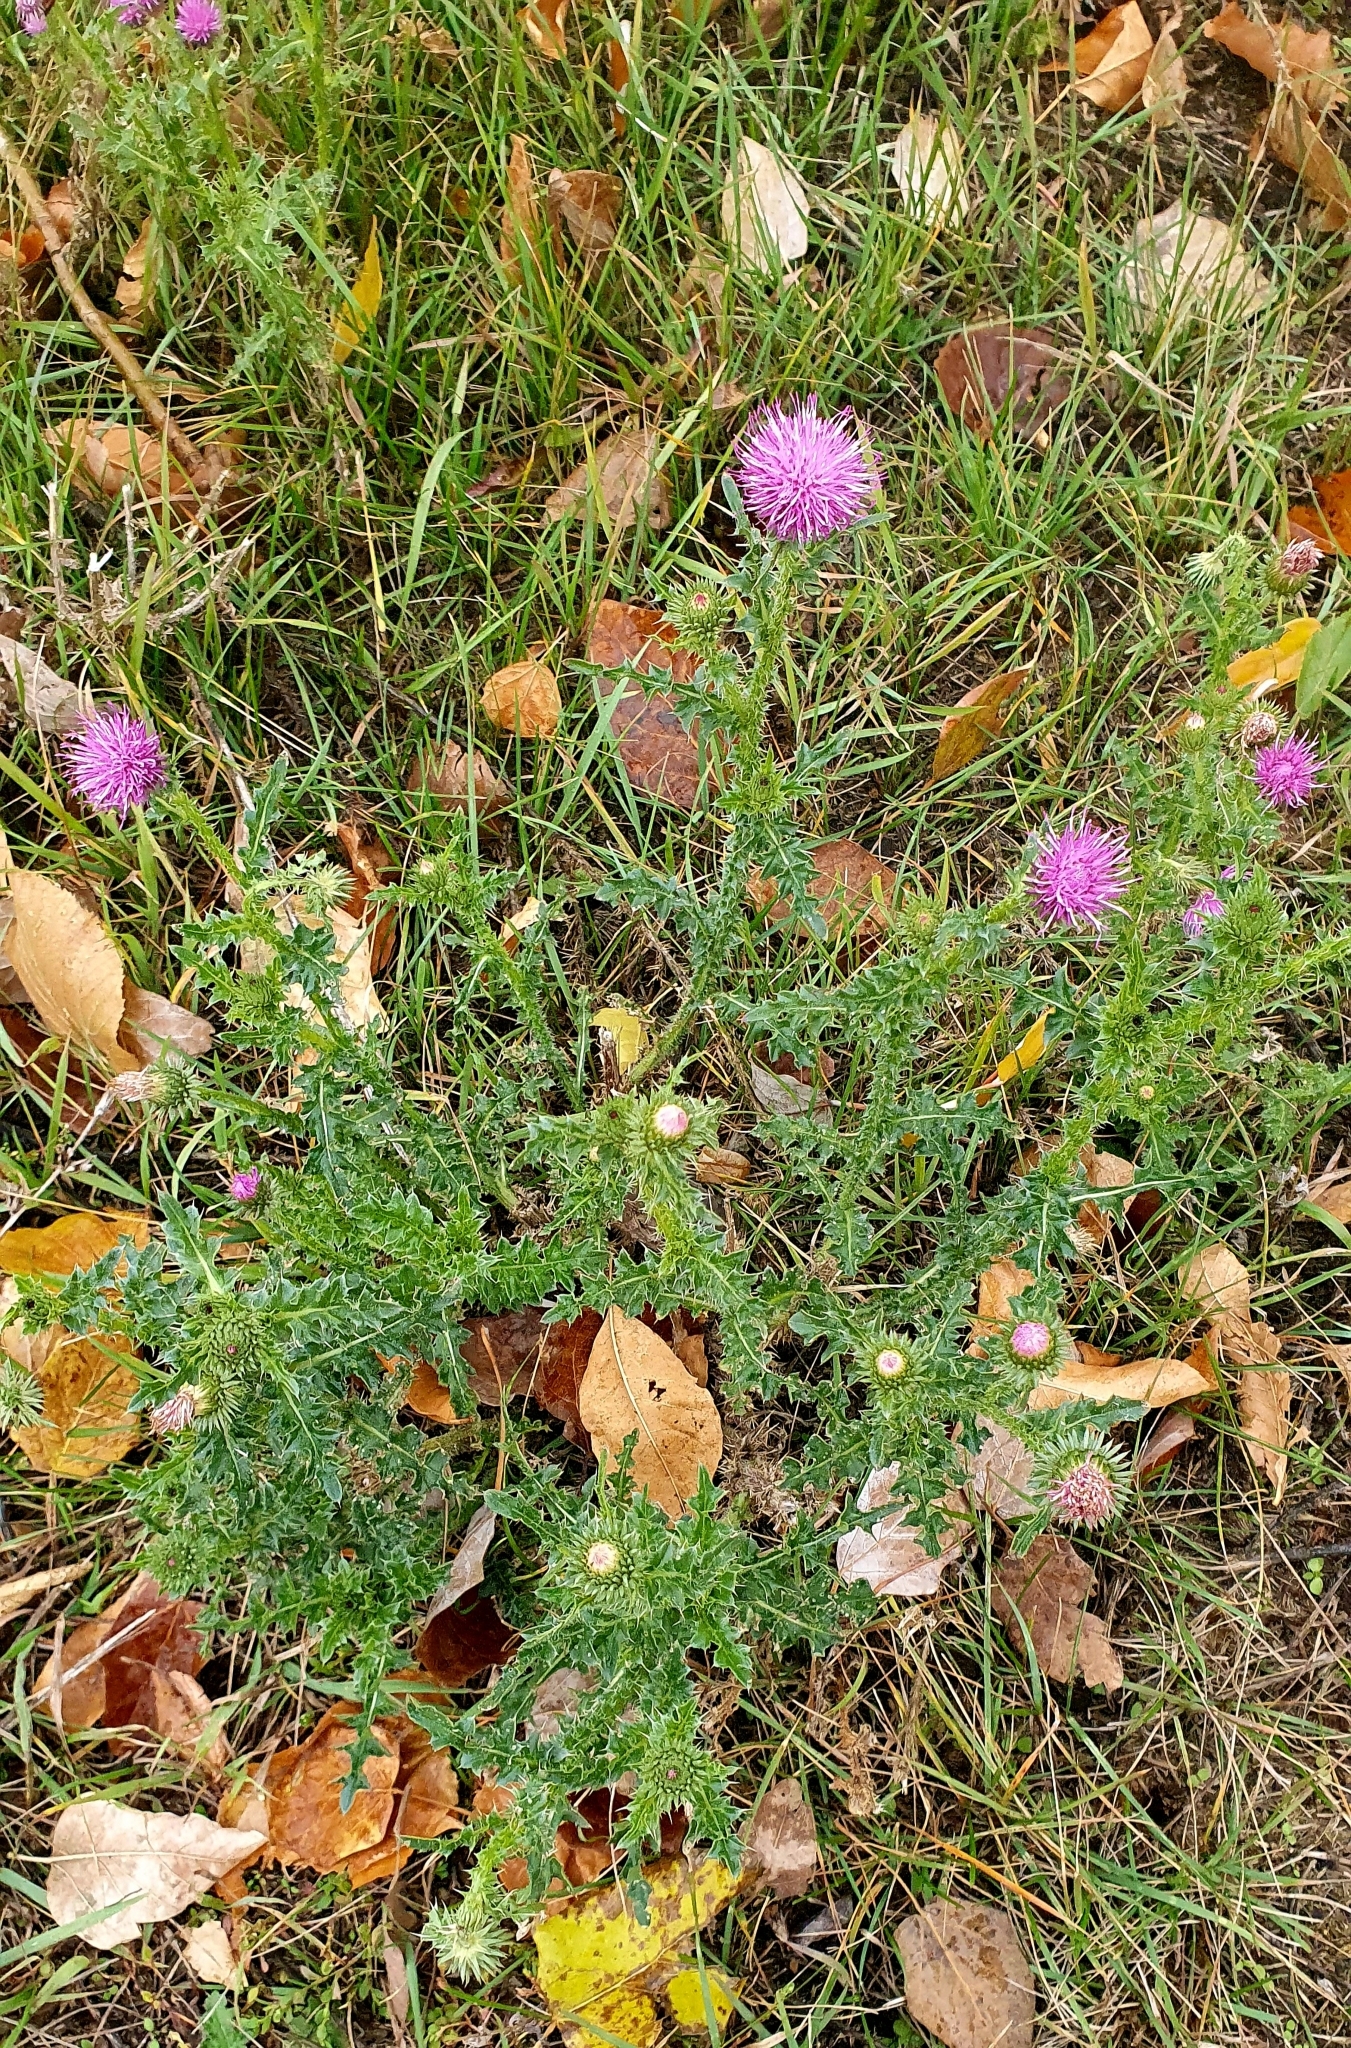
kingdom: Plantae
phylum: Tracheophyta
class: Magnoliopsida
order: Asterales
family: Asteraceae
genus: Carduus
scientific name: Carduus acanthoides
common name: Plumeless thistle
